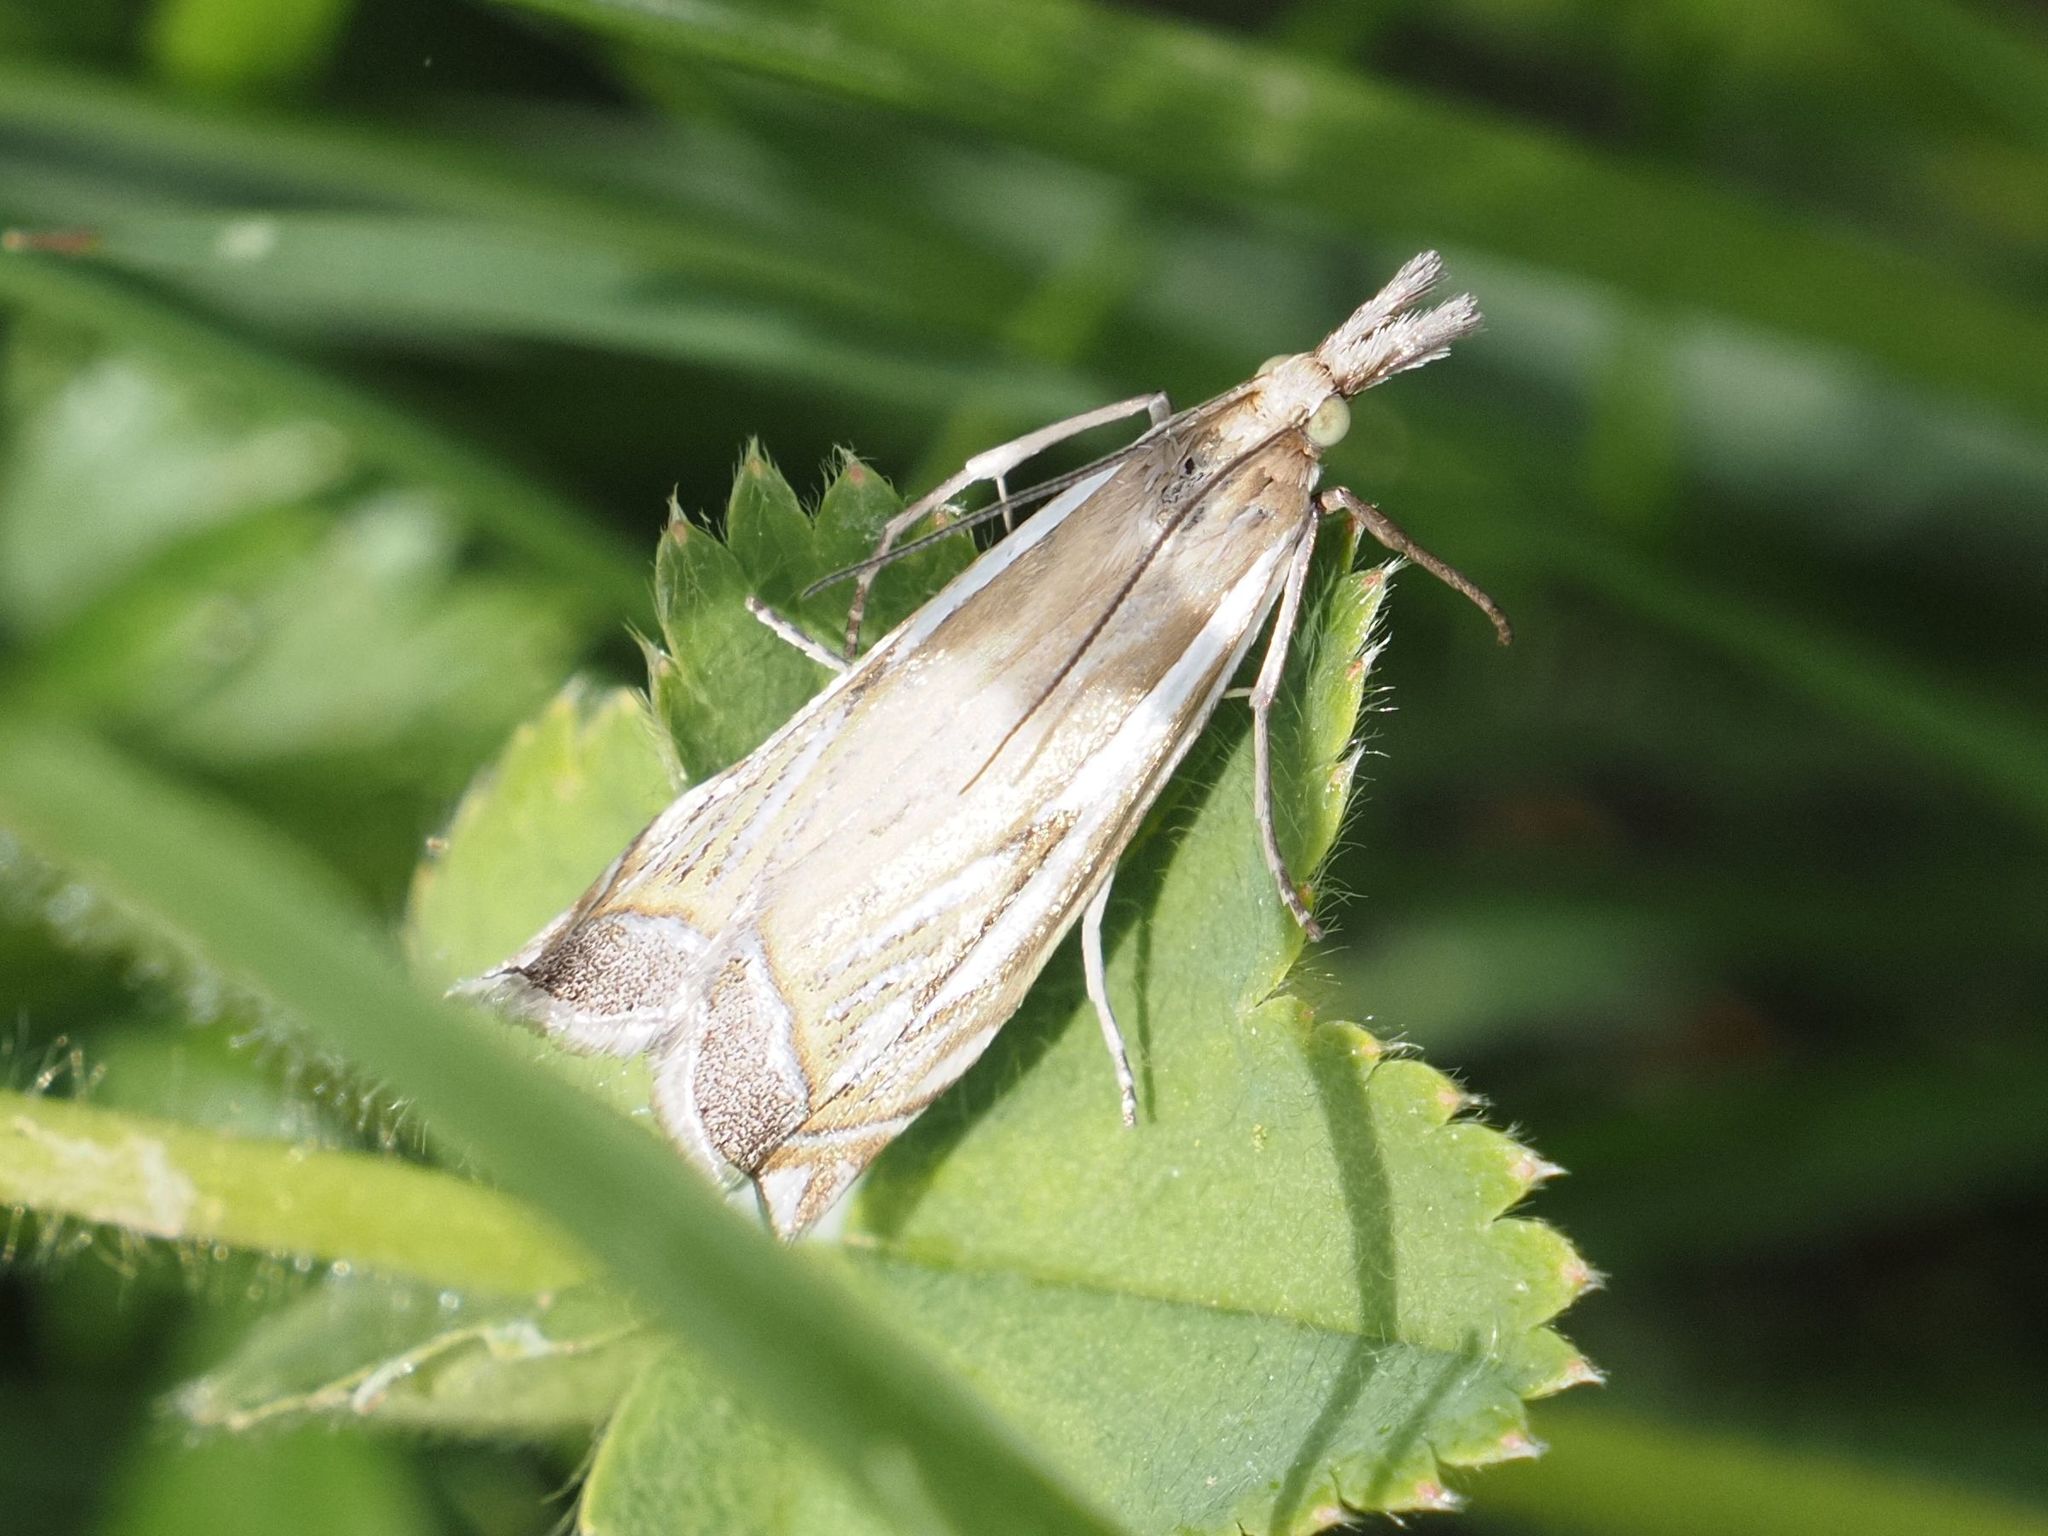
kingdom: Animalia
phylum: Arthropoda
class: Insecta
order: Lepidoptera
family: Crambidae
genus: Crambus
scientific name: Crambus pratella
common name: Scarce grass-veneer
